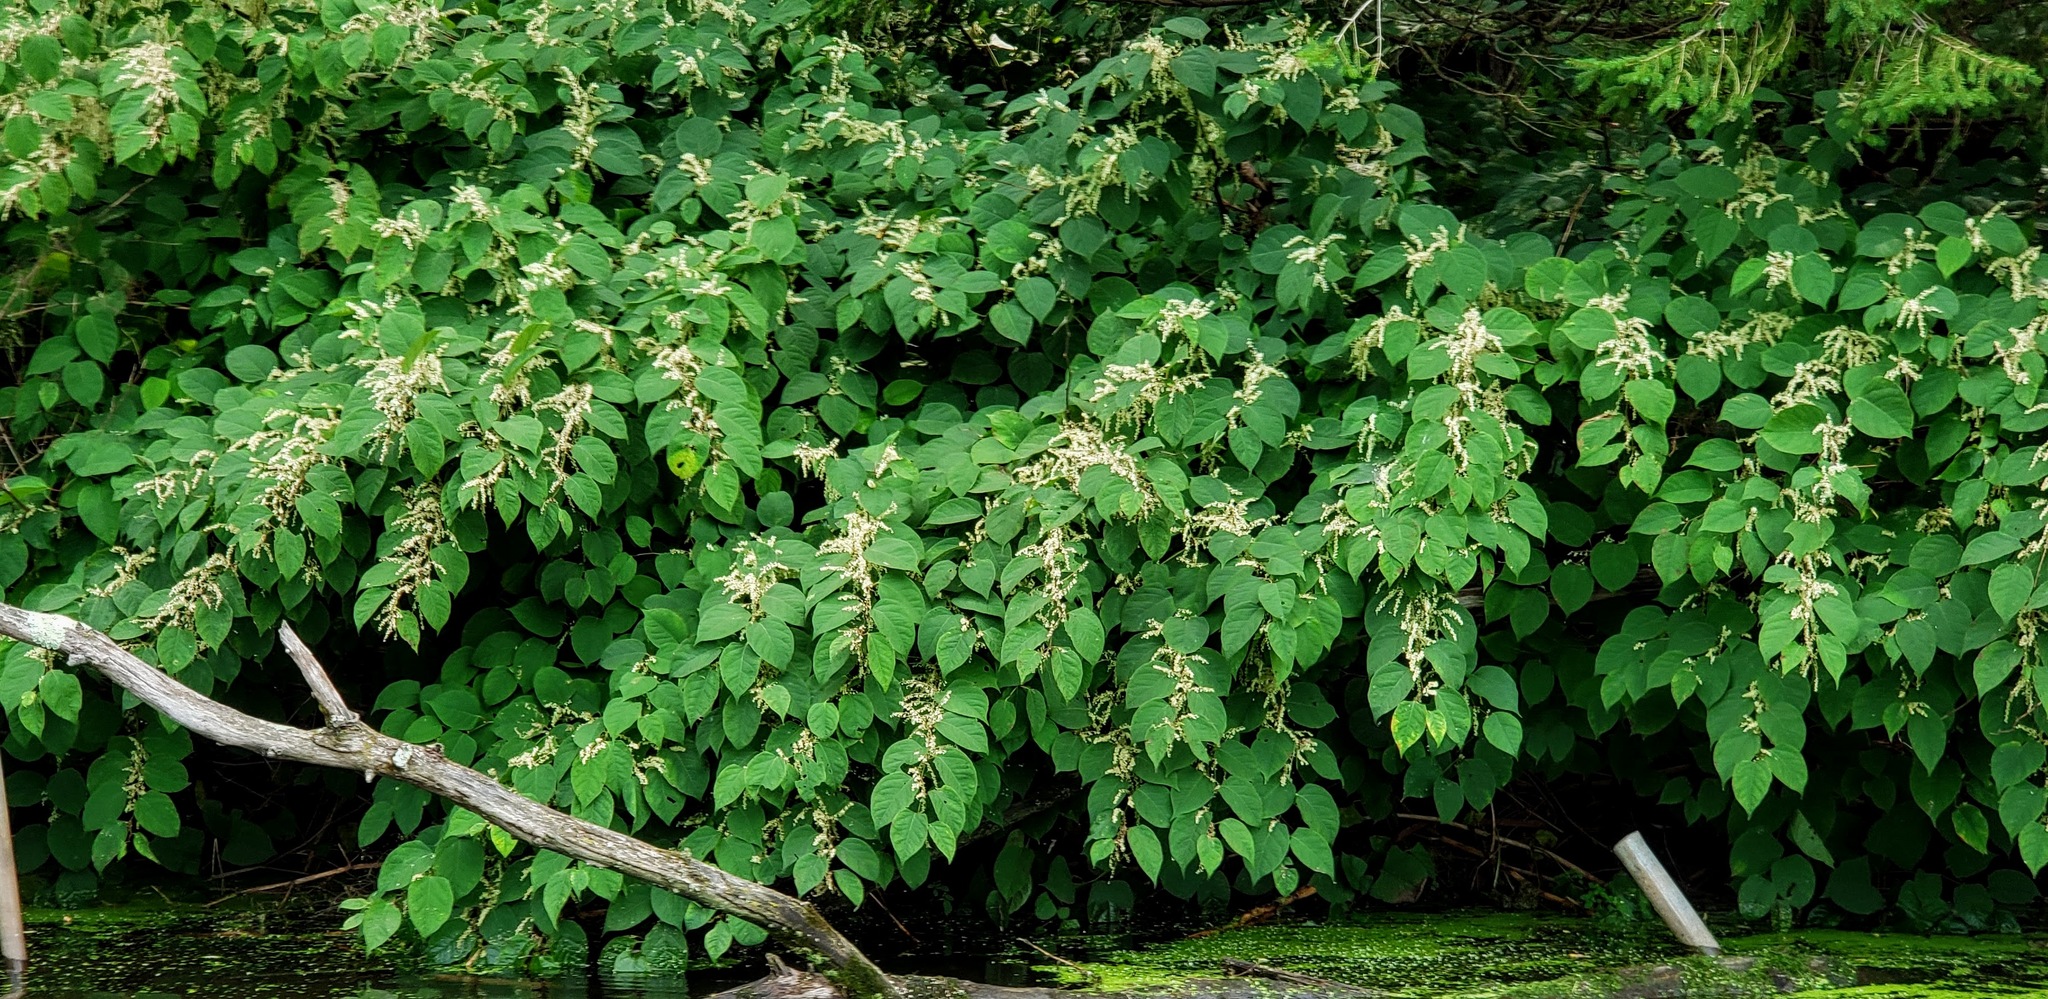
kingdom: Plantae
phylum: Tracheophyta
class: Magnoliopsida
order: Caryophyllales
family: Polygonaceae
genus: Reynoutria
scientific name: Reynoutria japonica
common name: Japanese knotweed
